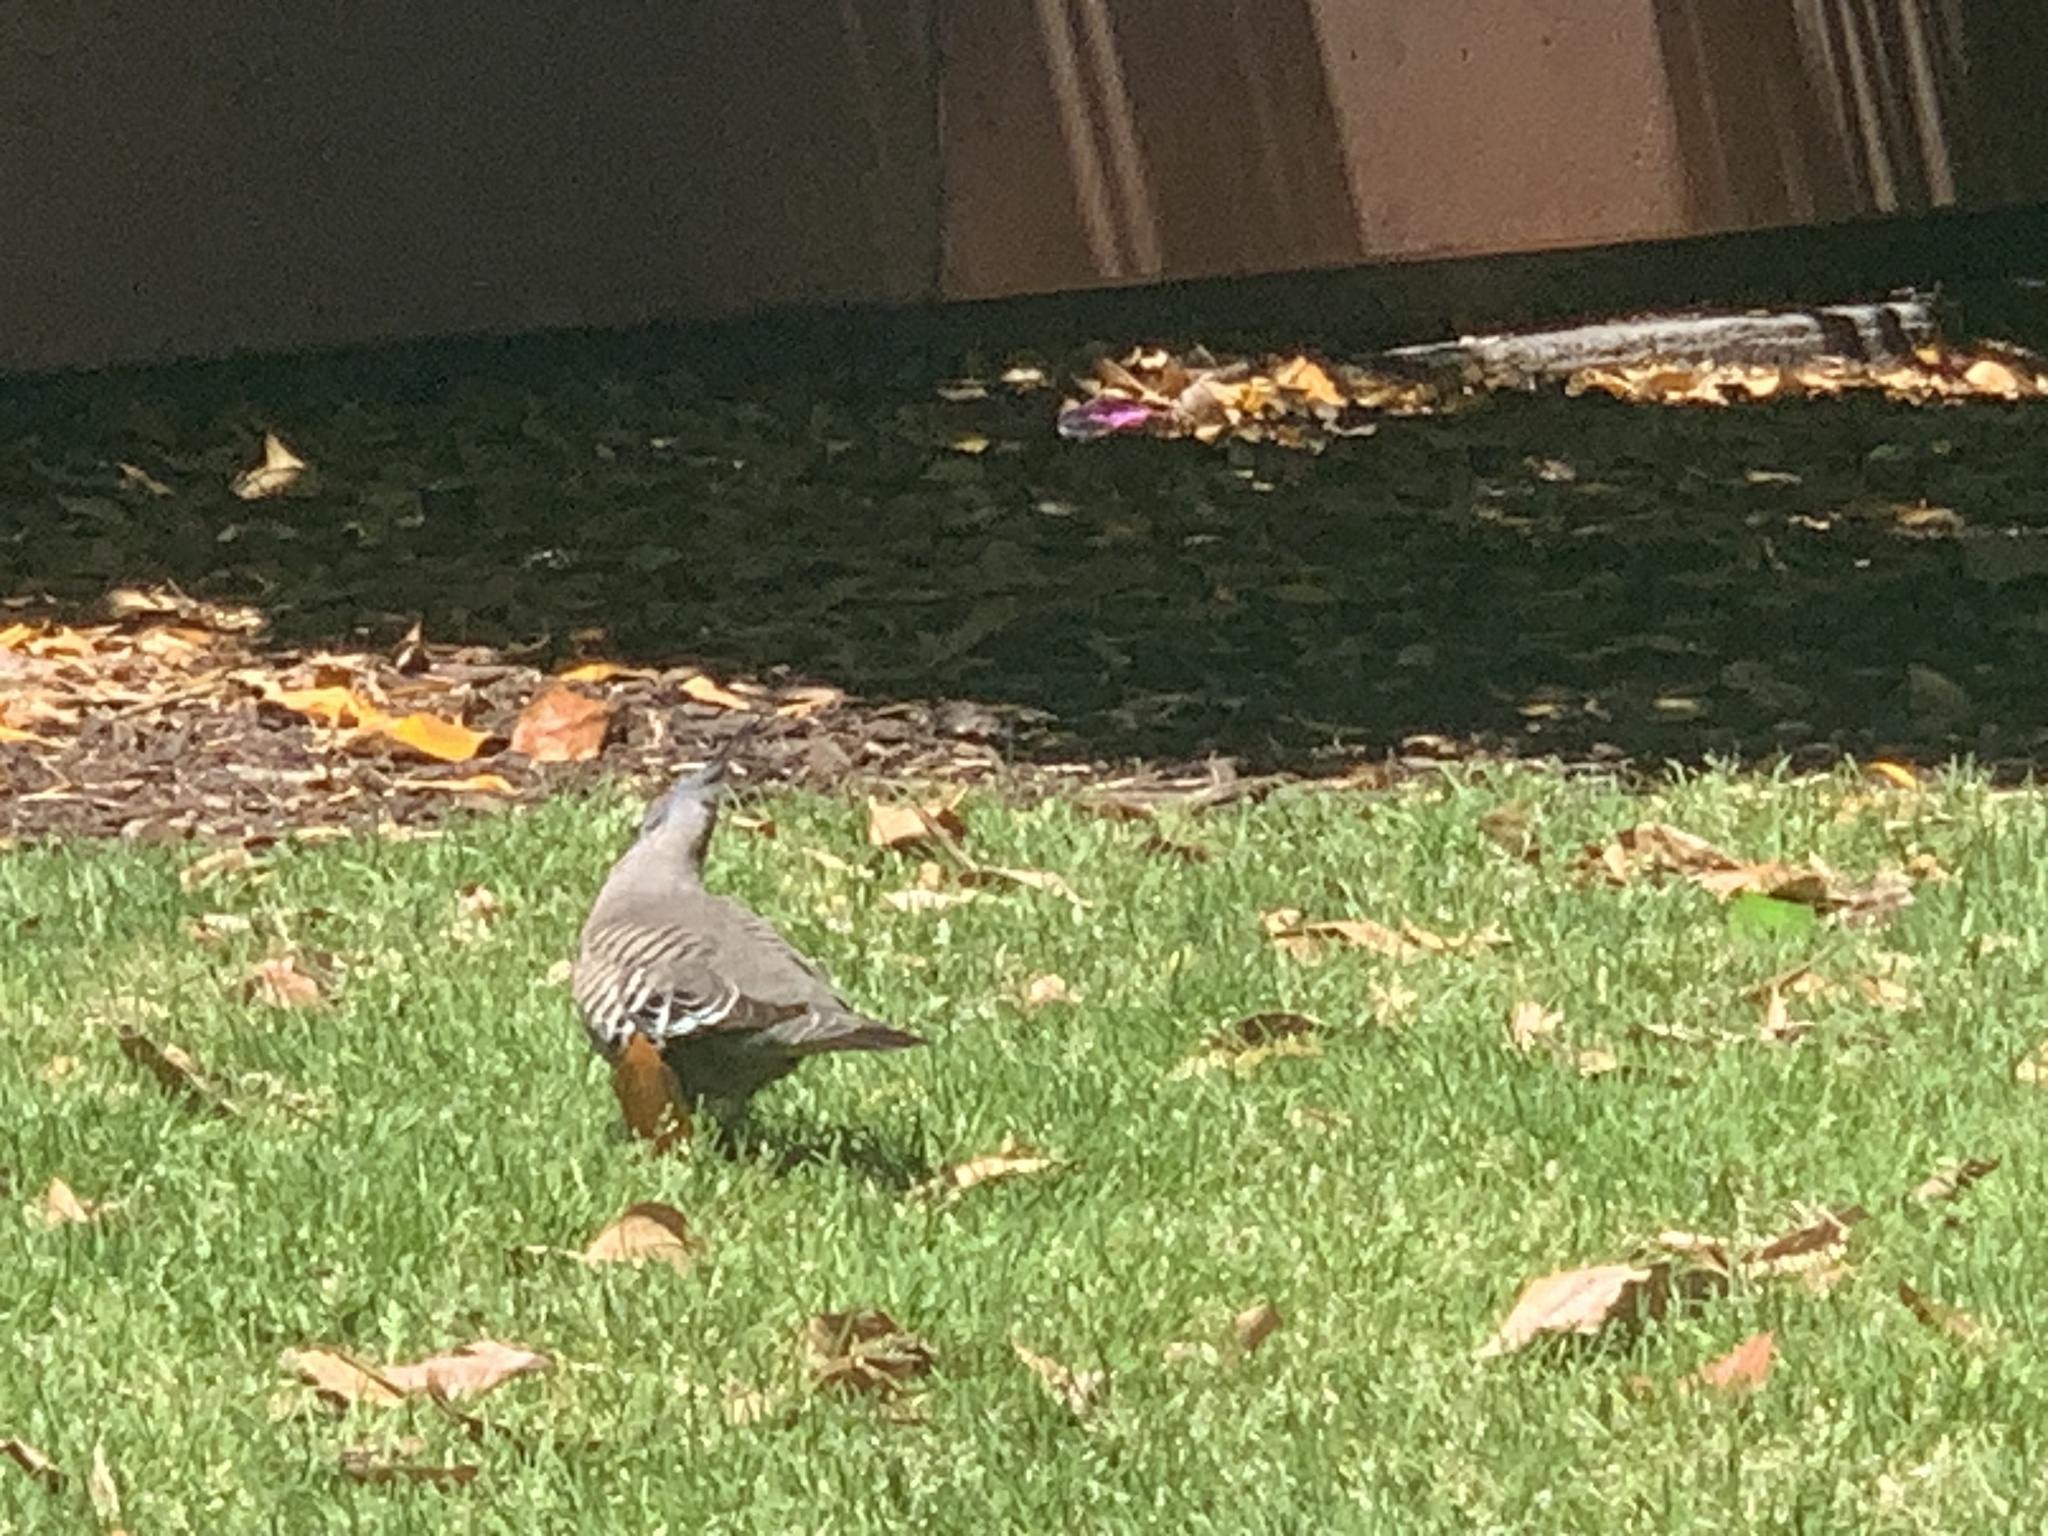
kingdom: Animalia
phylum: Chordata
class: Aves
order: Columbiformes
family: Columbidae
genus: Ocyphaps
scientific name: Ocyphaps lophotes
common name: Crested pigeon
